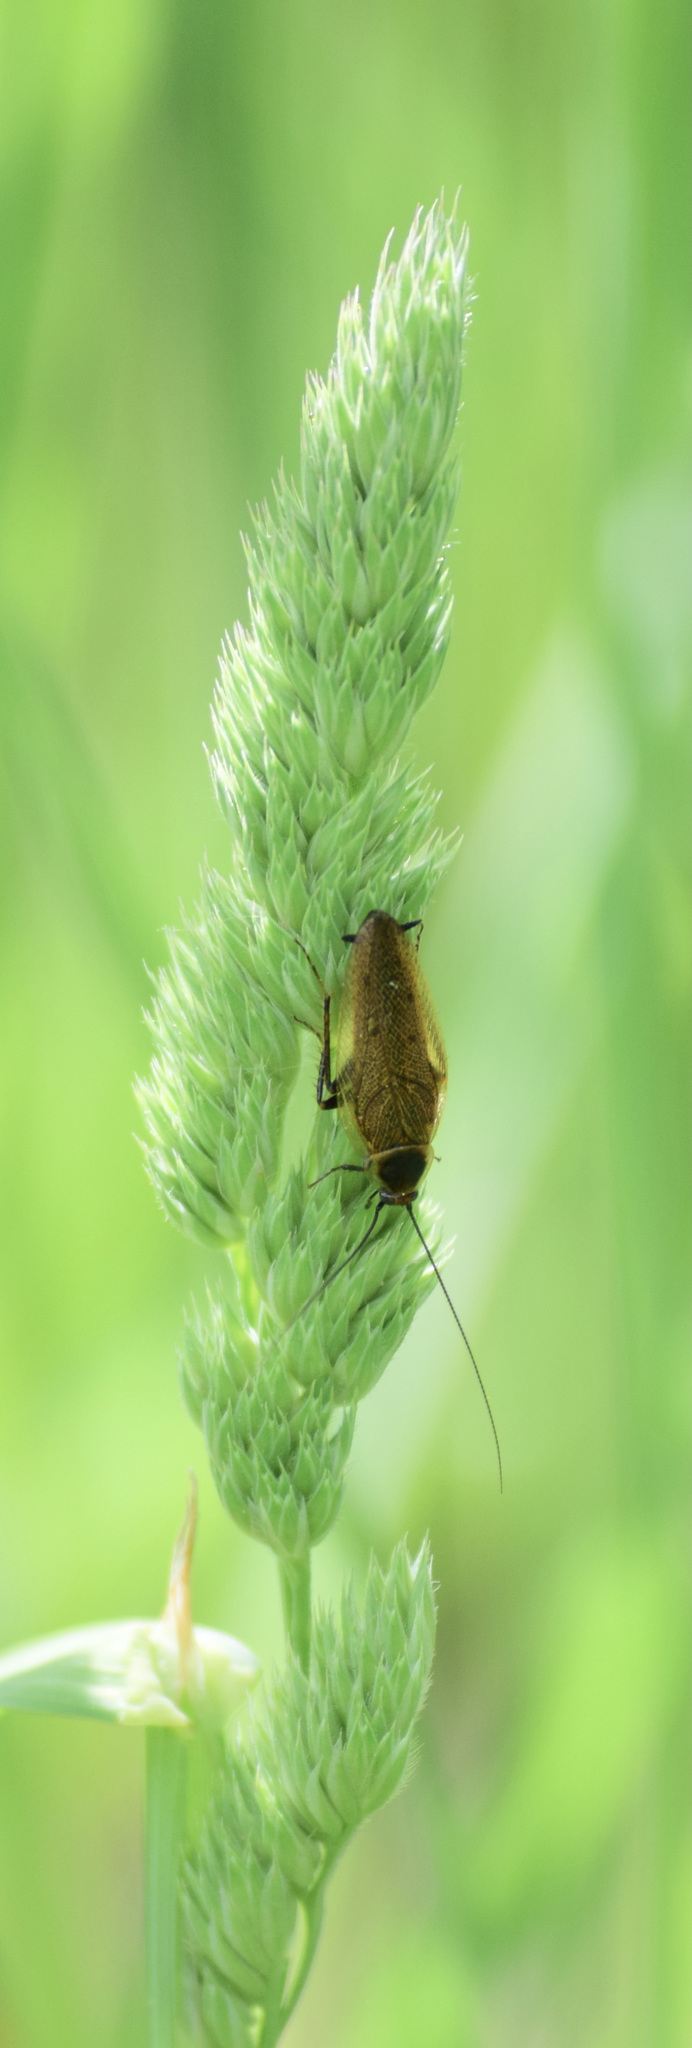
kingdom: Animalia
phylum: Arthropoda
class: Insecta
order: Blattodea
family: Ectobiidae
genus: Ectobius
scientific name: Ectobius lapponicus
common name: Dusky cockroach
